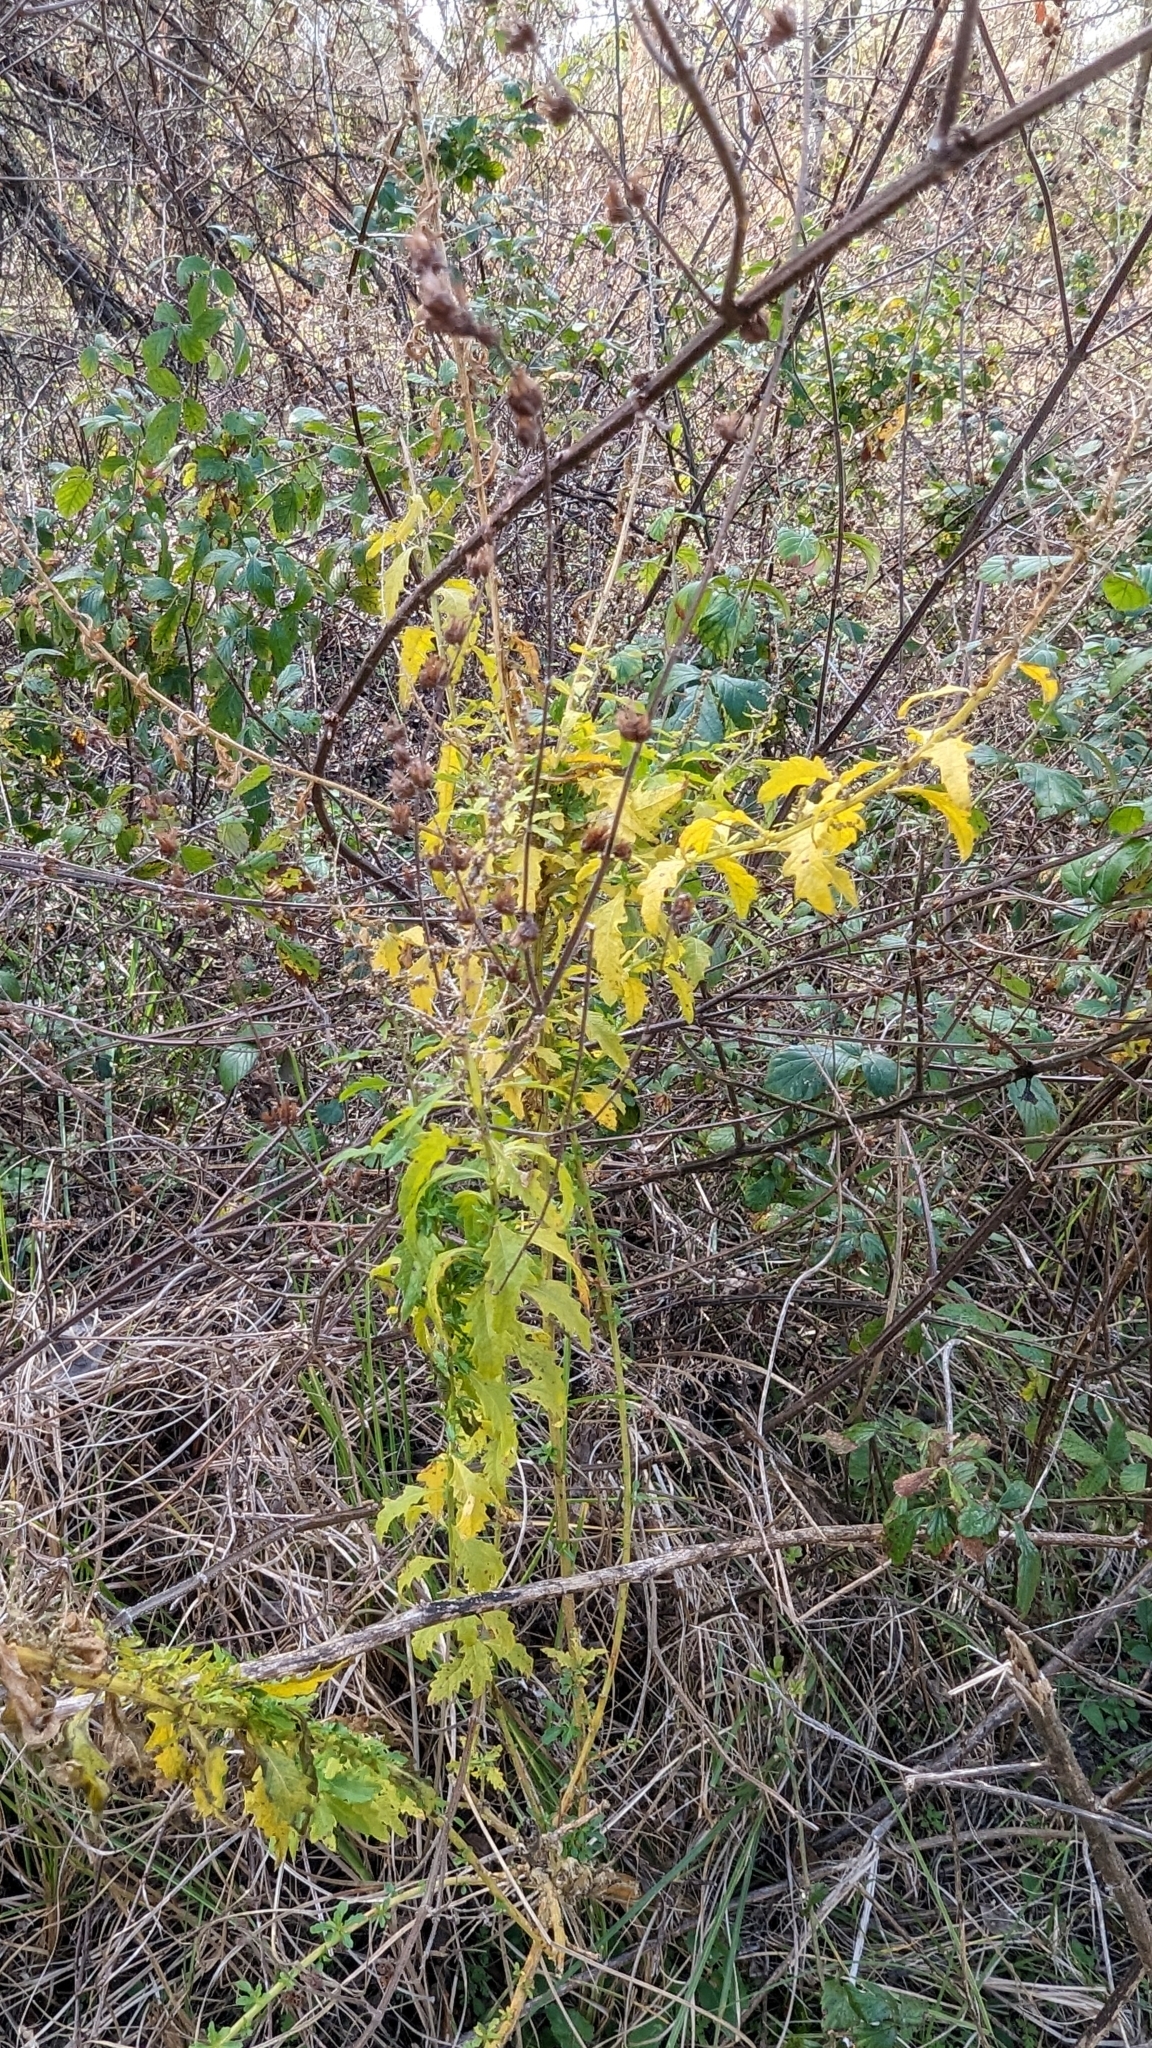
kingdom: Plantae
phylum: Tracheophyta
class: Magnoliopsida
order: Caryophyllales
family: Amaranthaceae
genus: Dysphania
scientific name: Dysphania ambrosioides
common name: Wormseed
